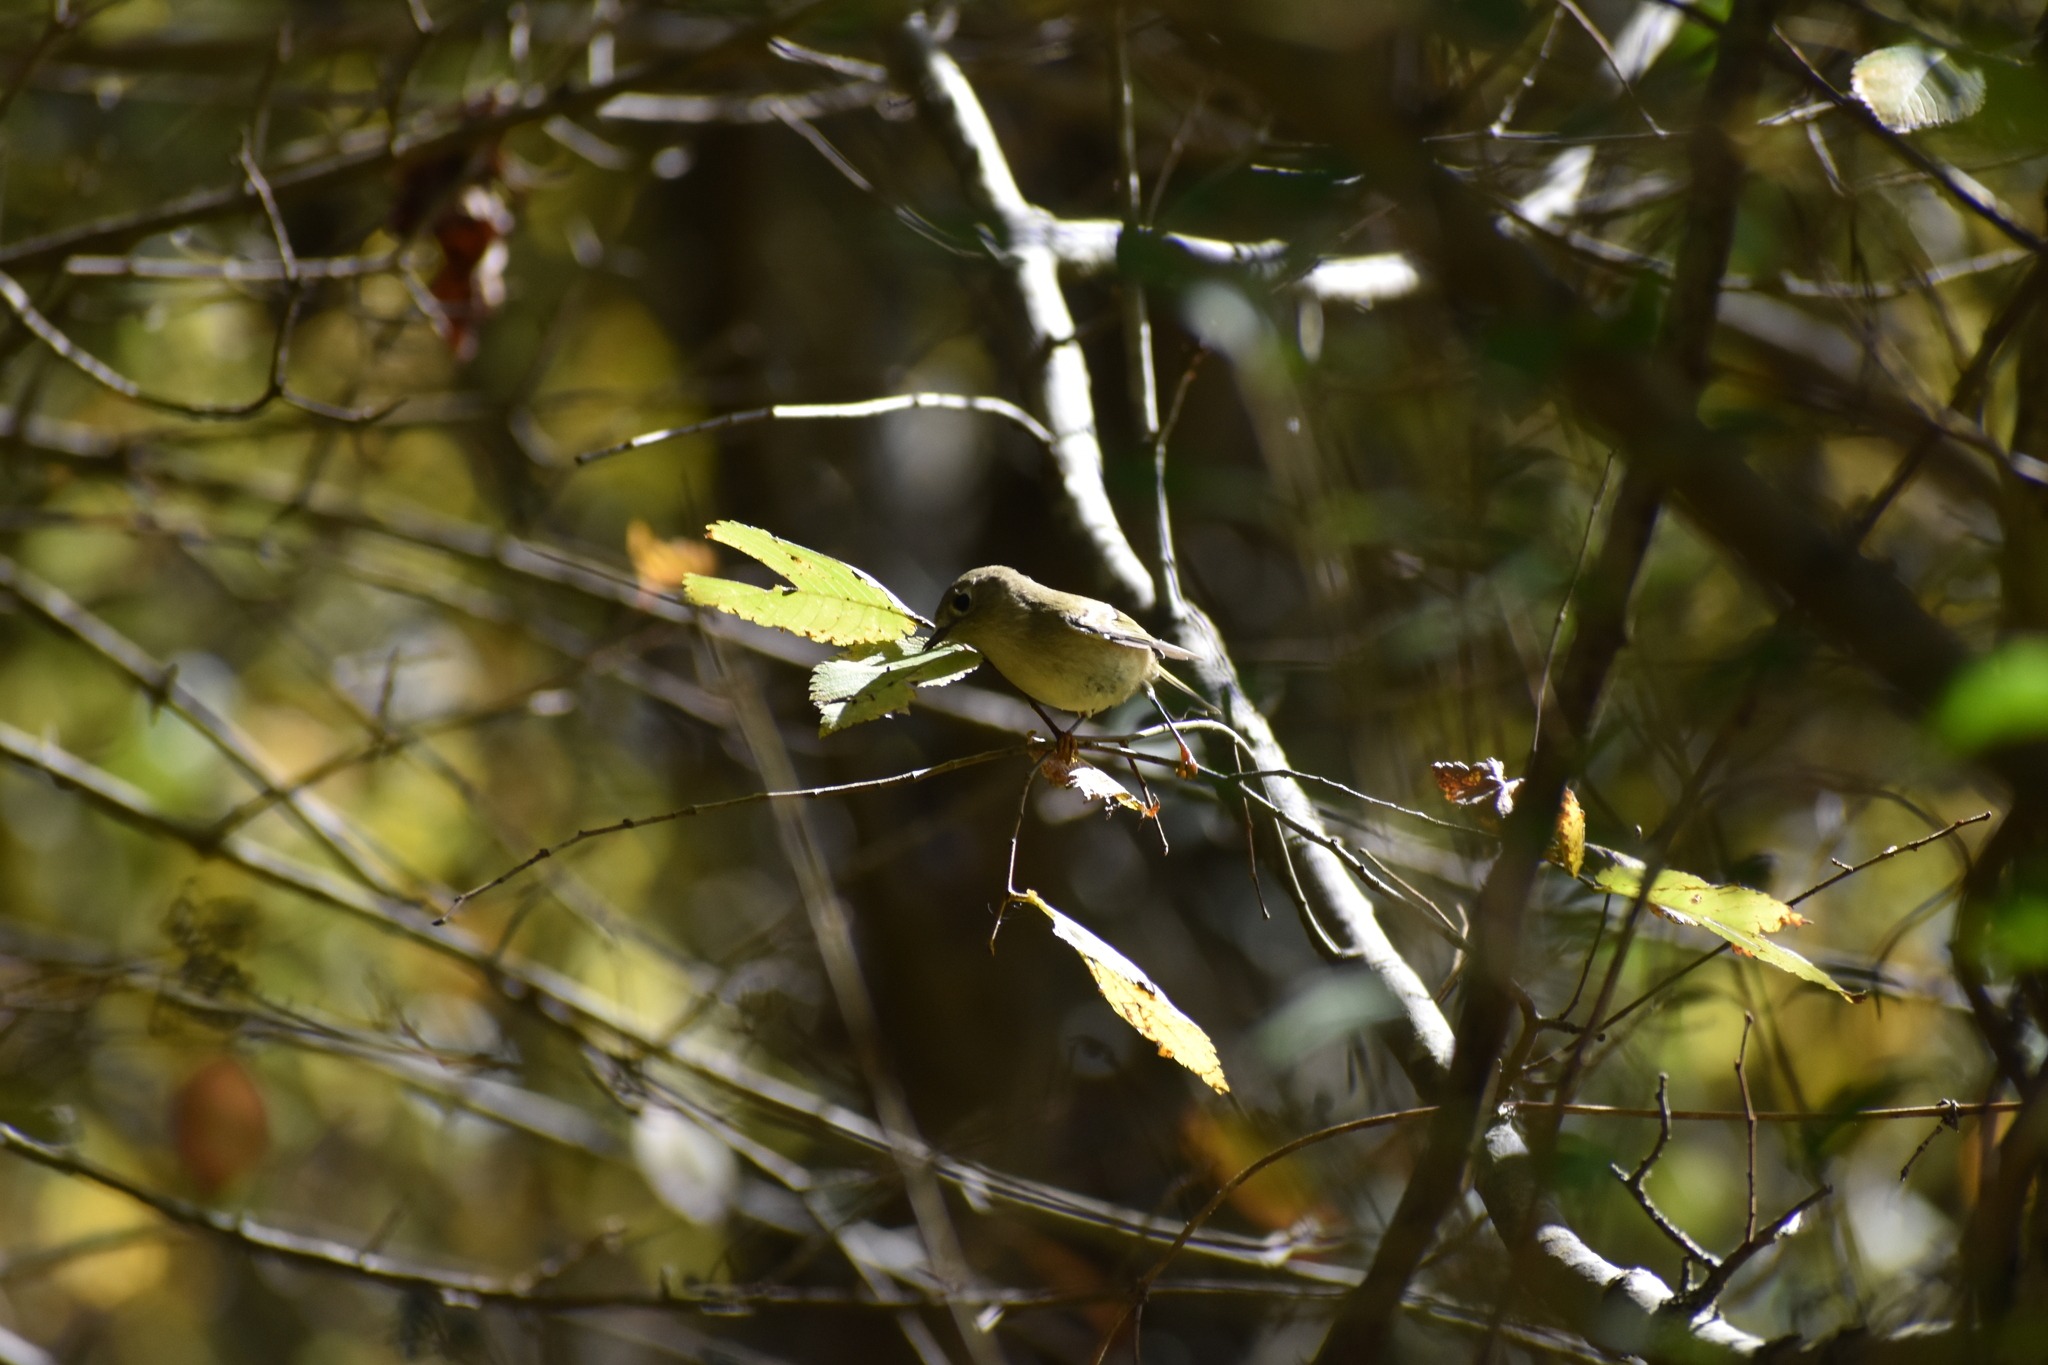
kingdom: Animalia
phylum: Chordata
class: Aves
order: Passeriformes
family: Regulidae
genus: Regulus
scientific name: Regulus calendula
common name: Ruby-crowned kinglet
